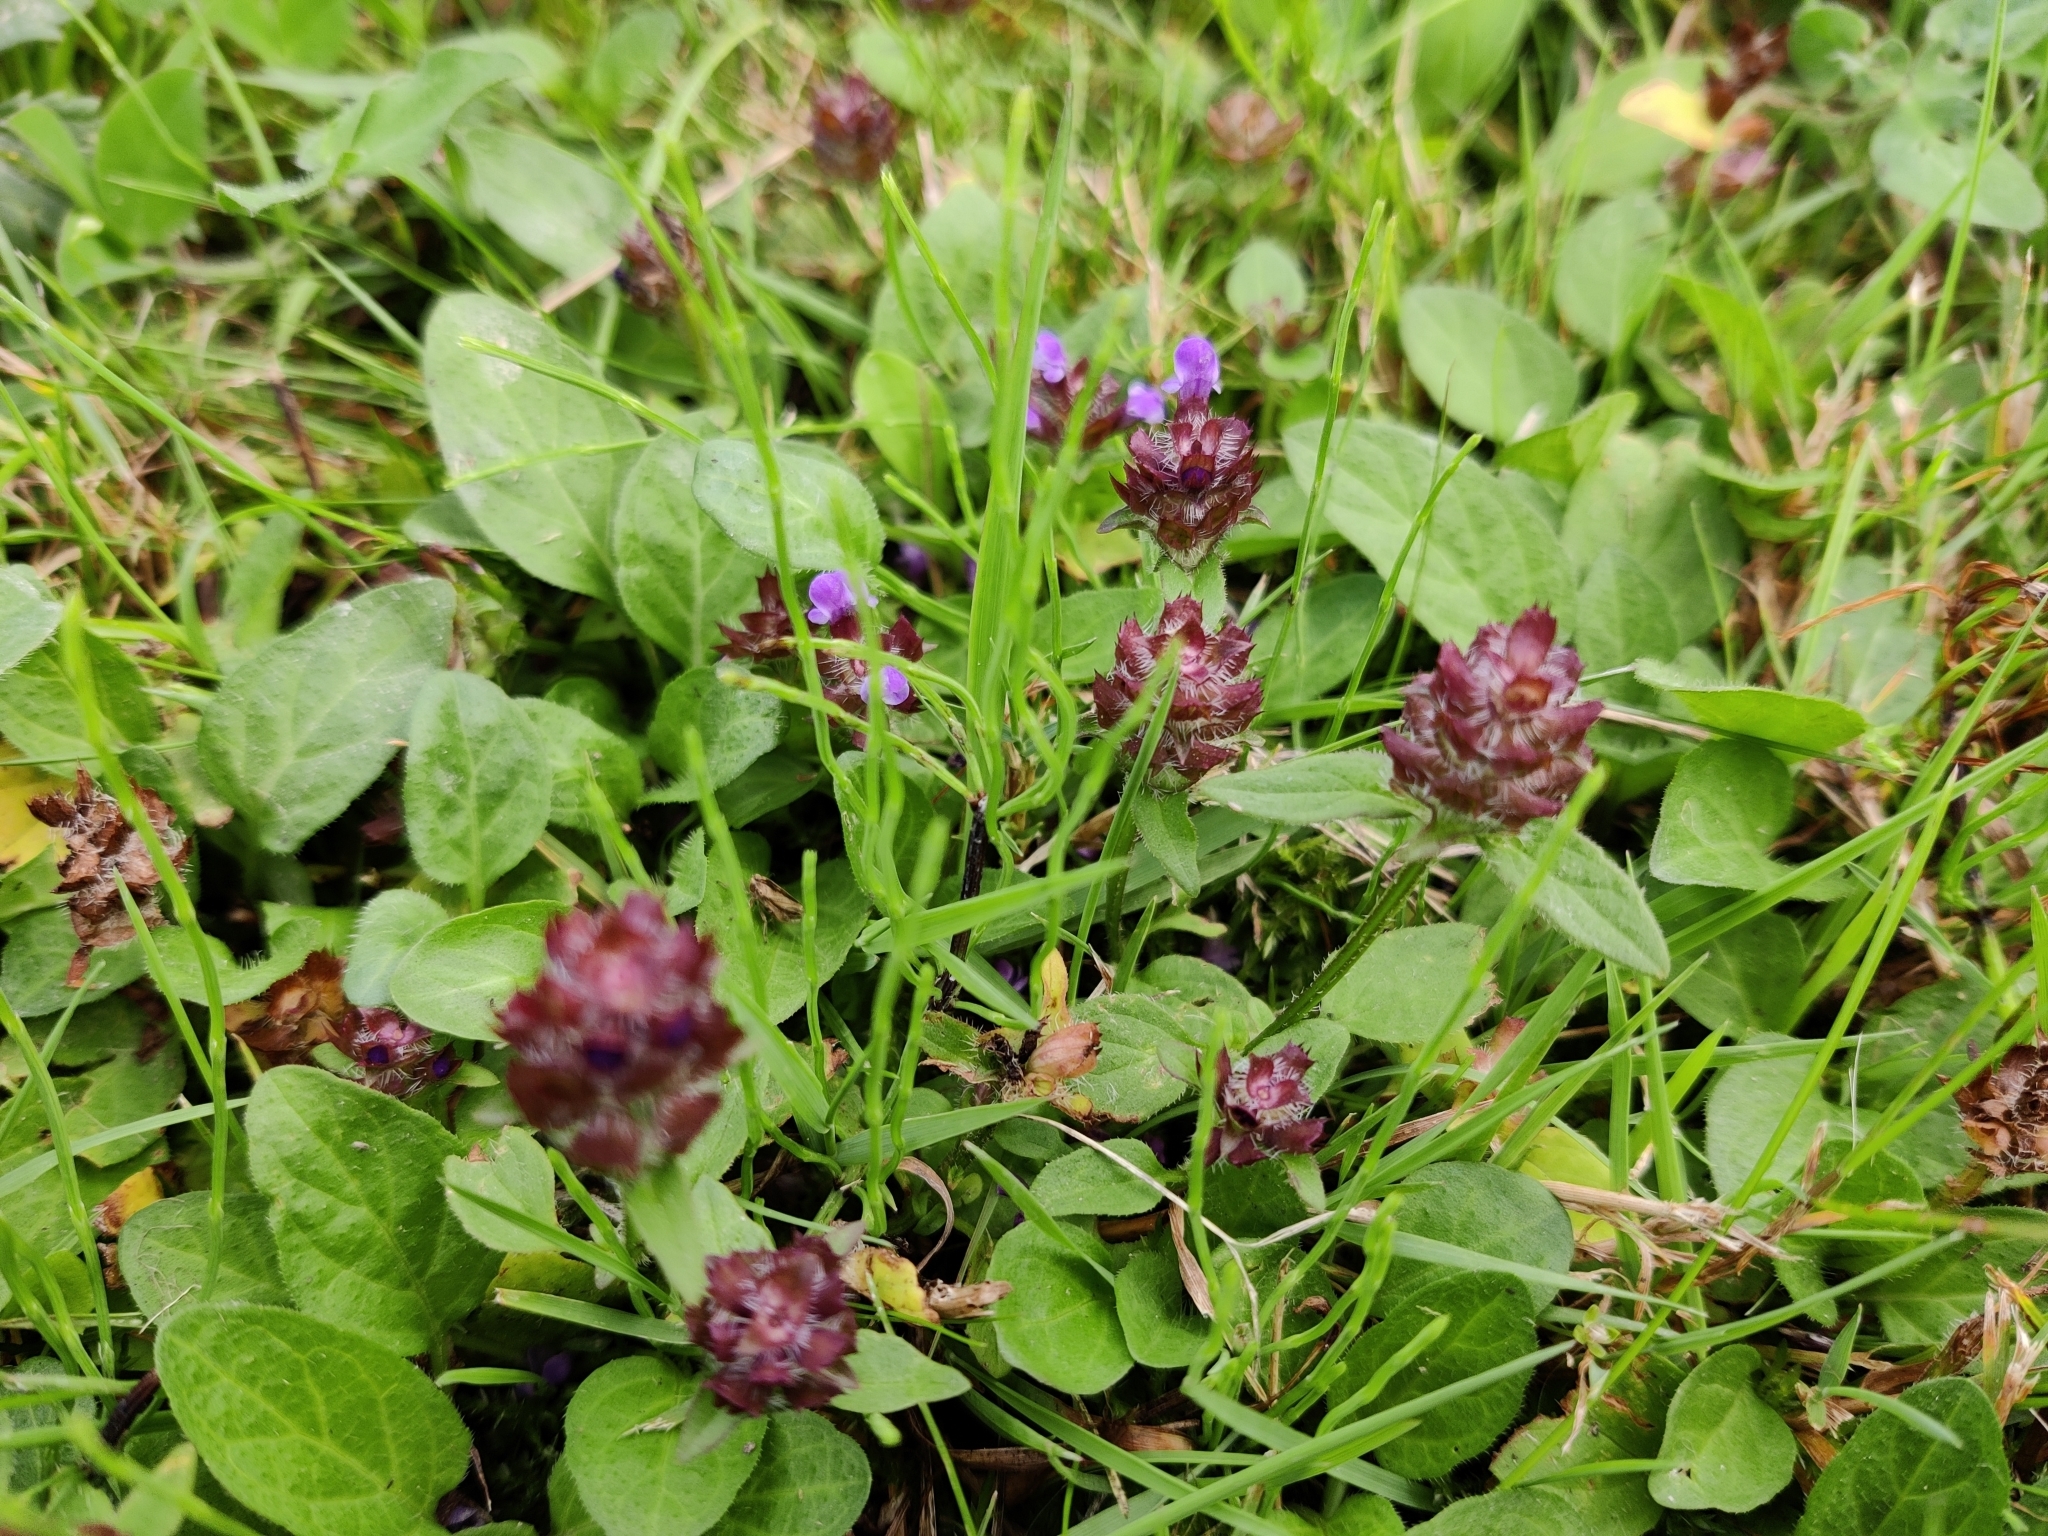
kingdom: Plantae
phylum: Tracheophyta
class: Magnoliopsida
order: Lamiales
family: Lamiaceae
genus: Prunella
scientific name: Prunella vulgaris
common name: Heal-all
